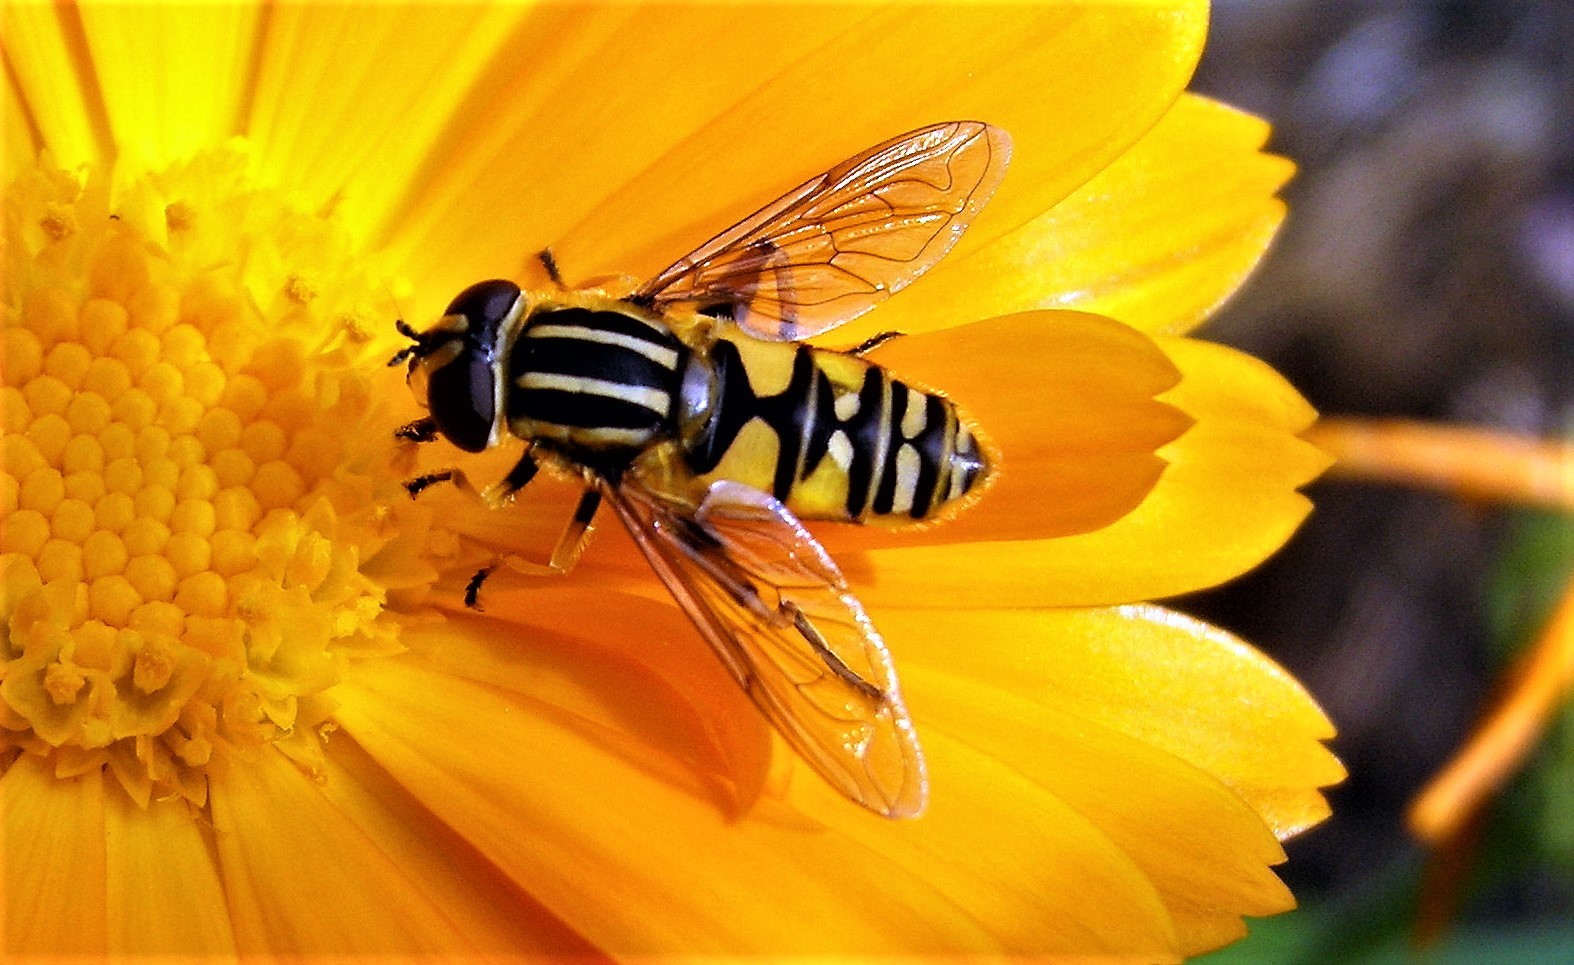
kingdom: Animalia
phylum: Arthropoda
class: Insecta
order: Diptera
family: Syrphidae
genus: Helophilus
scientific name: Helophilus pendulus
